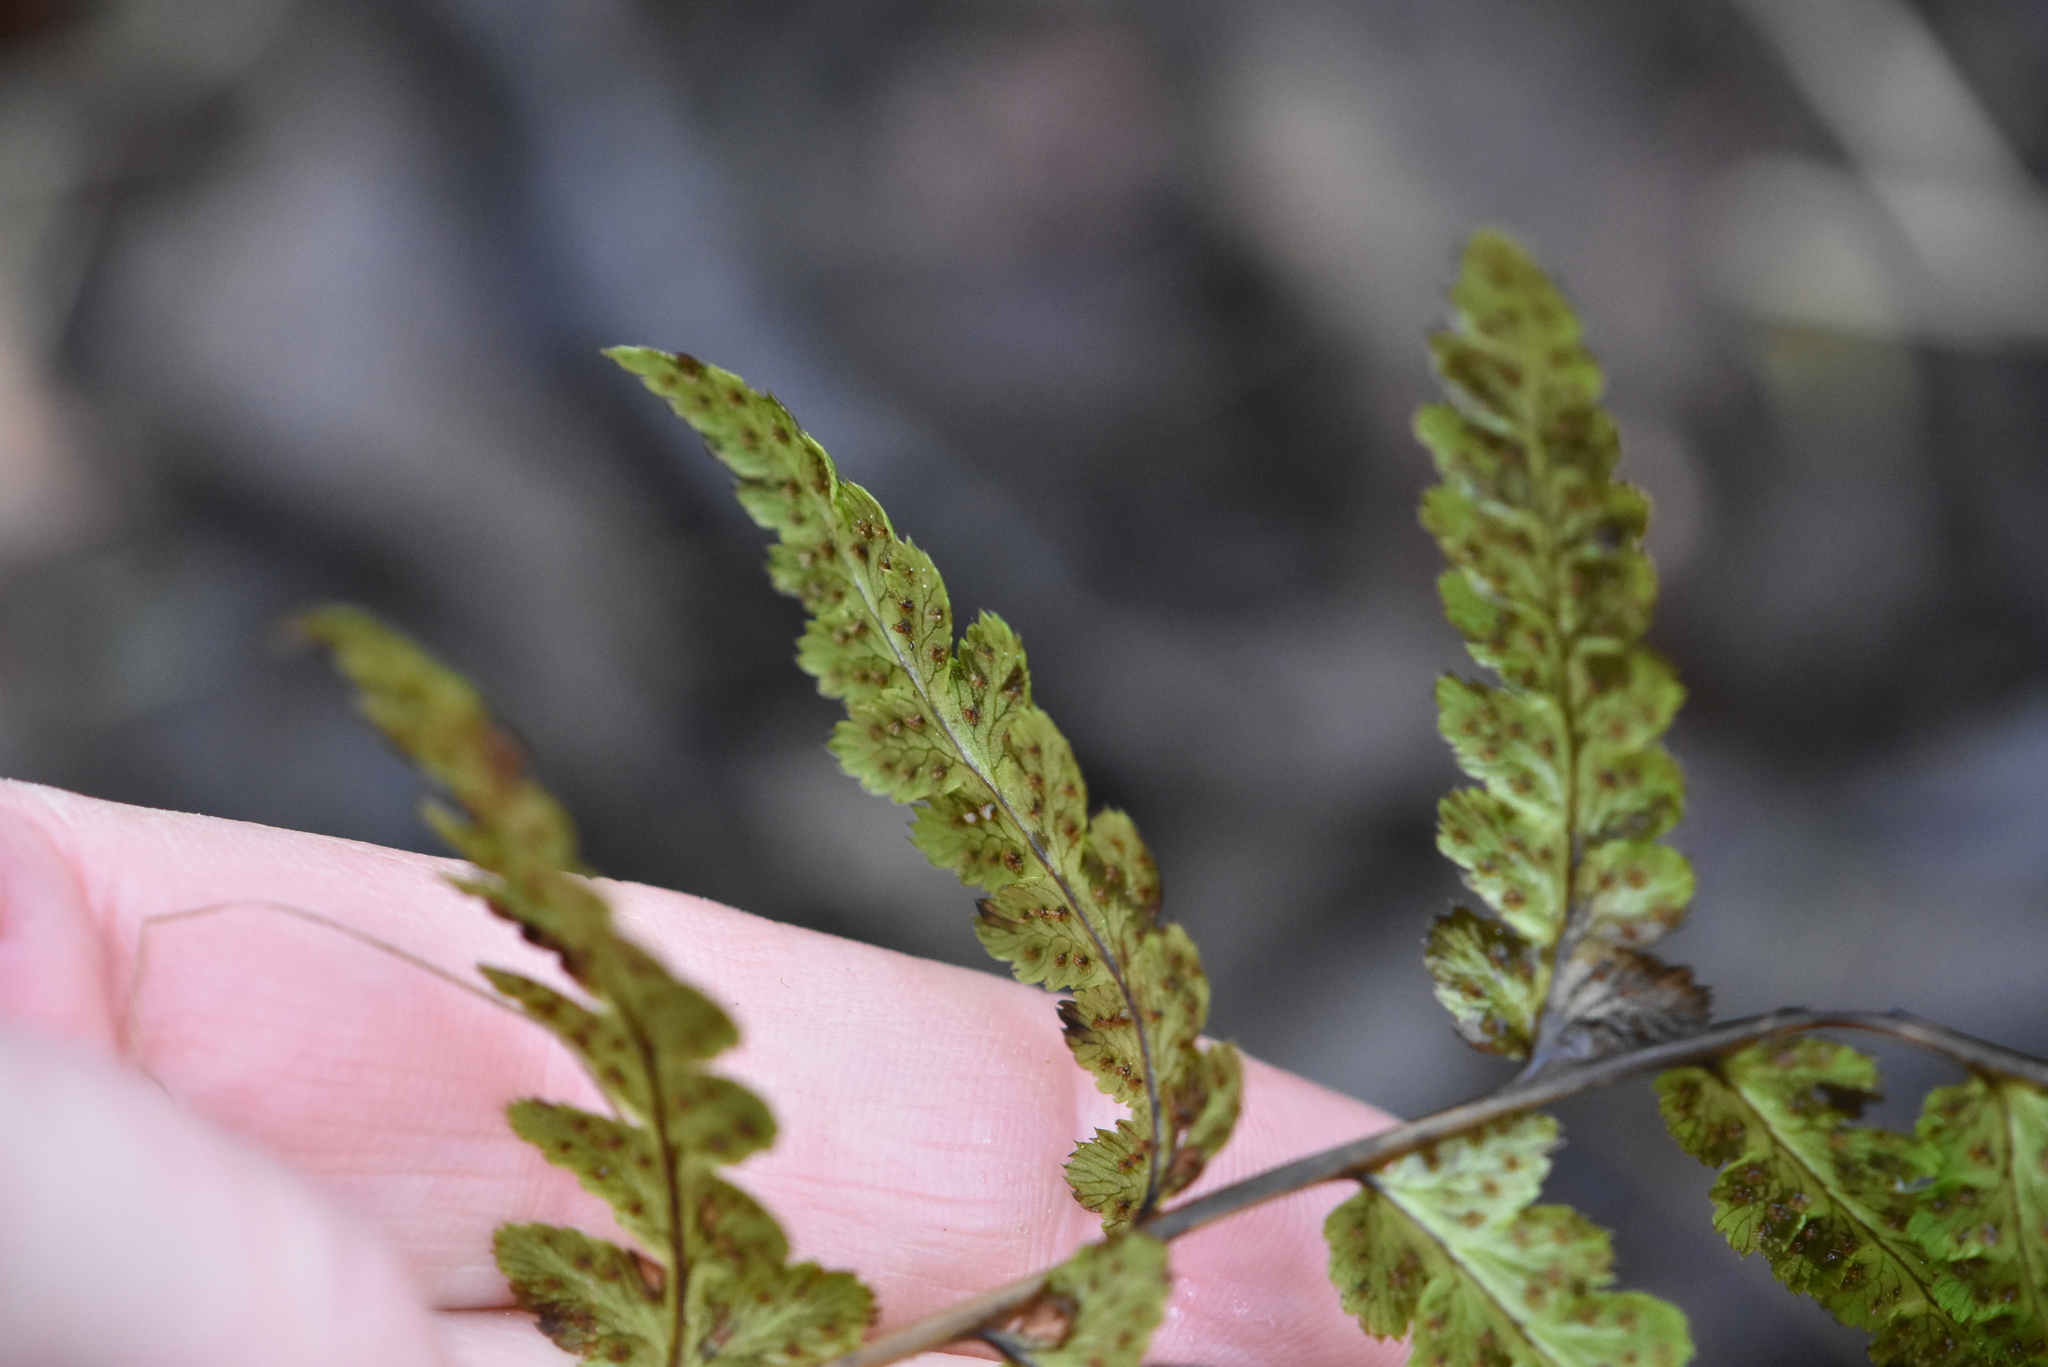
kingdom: Plantae
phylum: Tracheophyta
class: Polypodiopsida
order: Polypodiales
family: Dryopteridaceae
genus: Dryopteris
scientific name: Dryopteris cristata
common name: Crested wood fern
